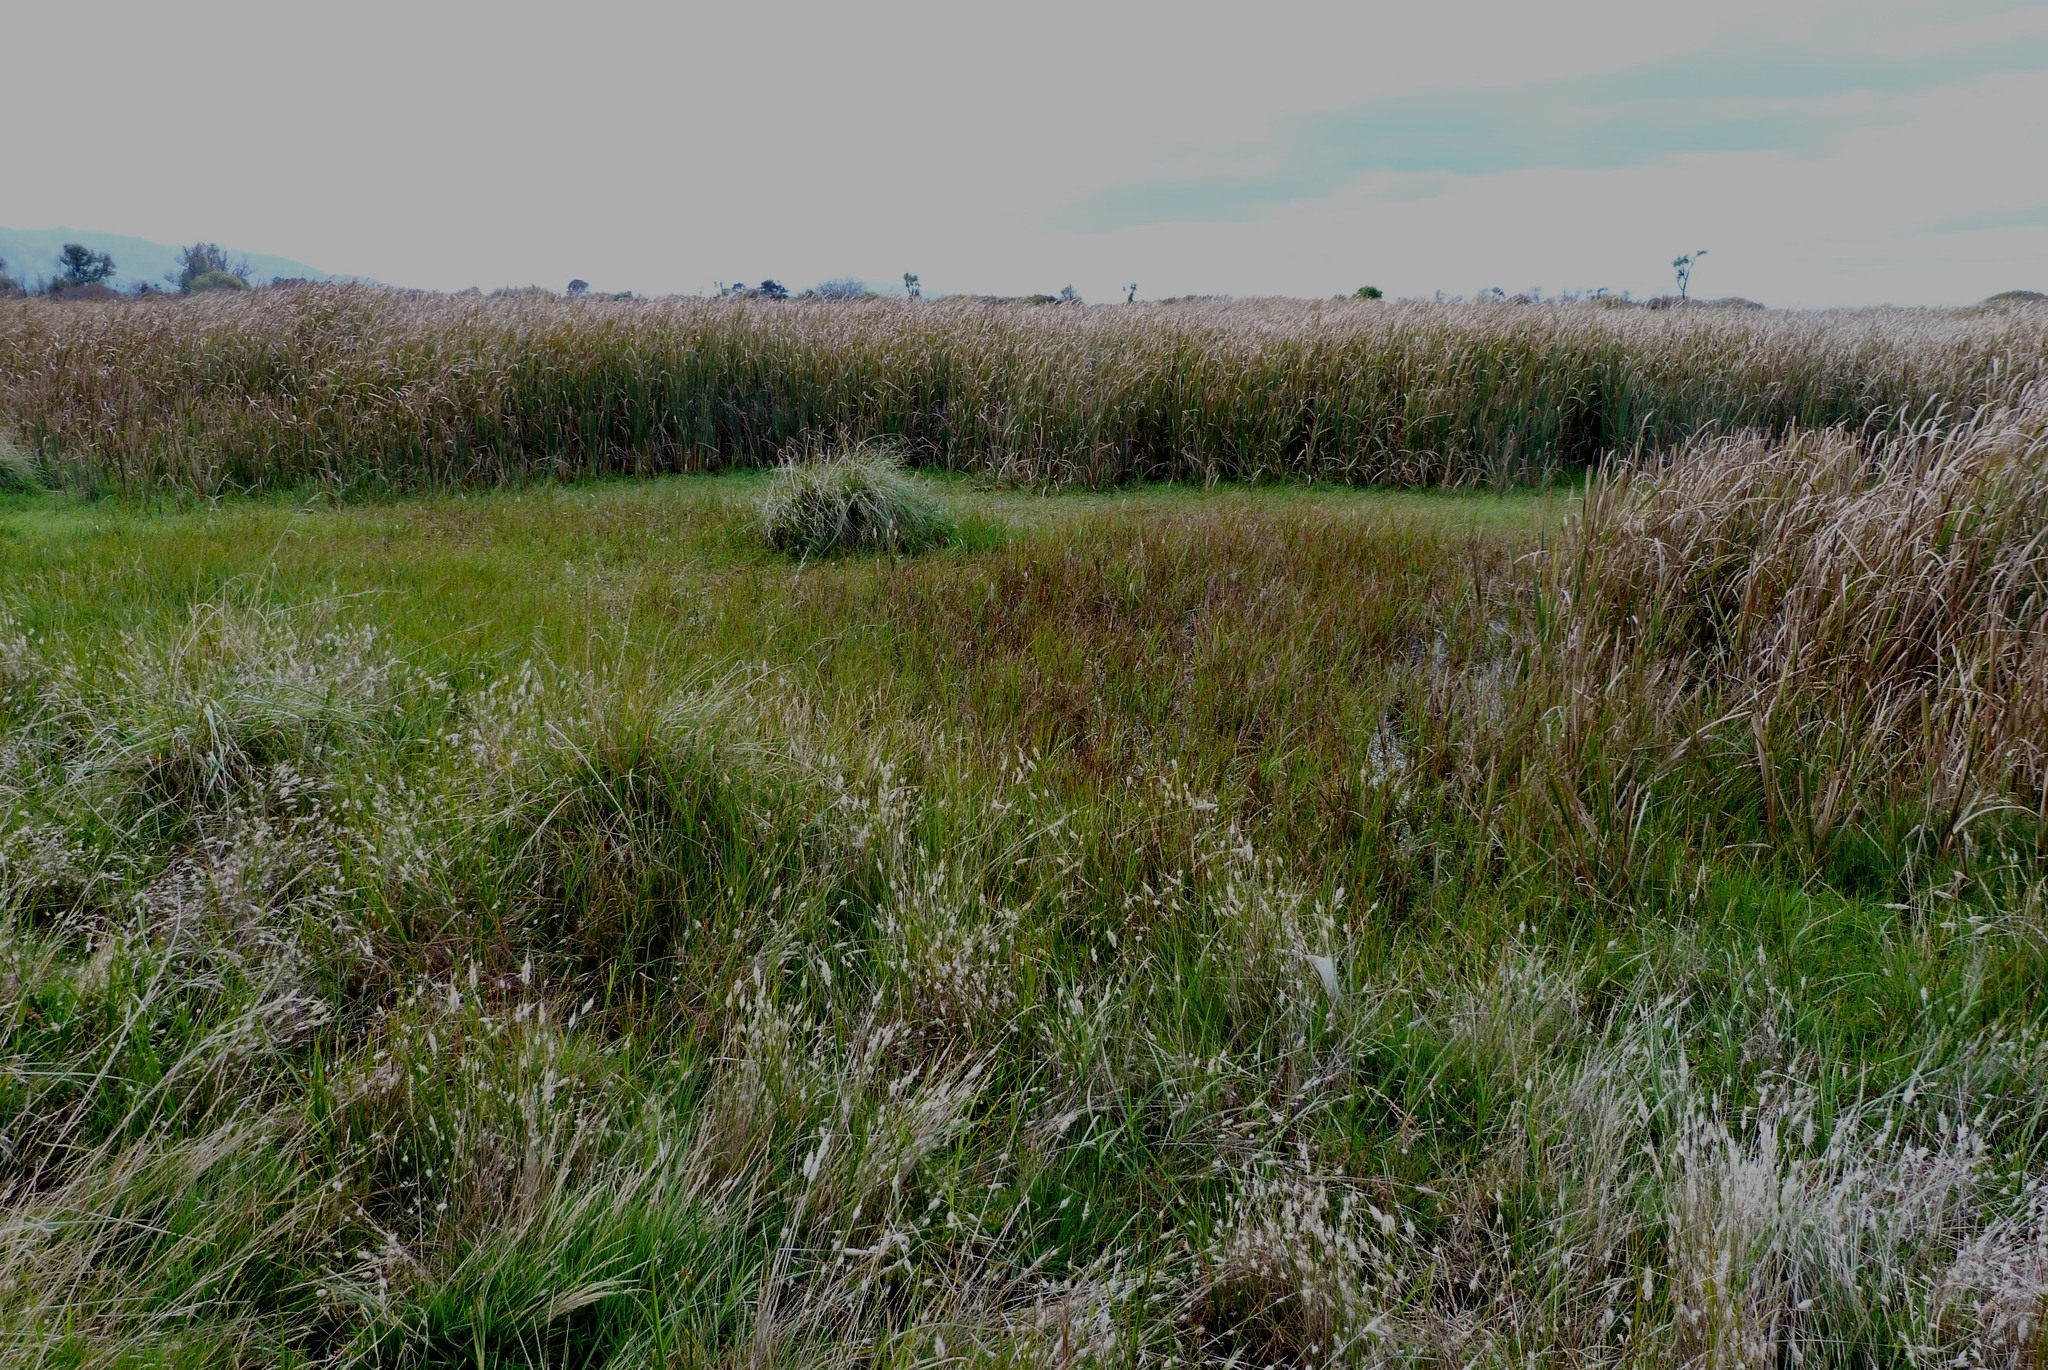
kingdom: Plantae
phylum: Tracheophyta
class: Liliopsida
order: Poales
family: Cyperaceae
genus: Bolboschoenus
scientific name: Bolboschoenus caldwellii
